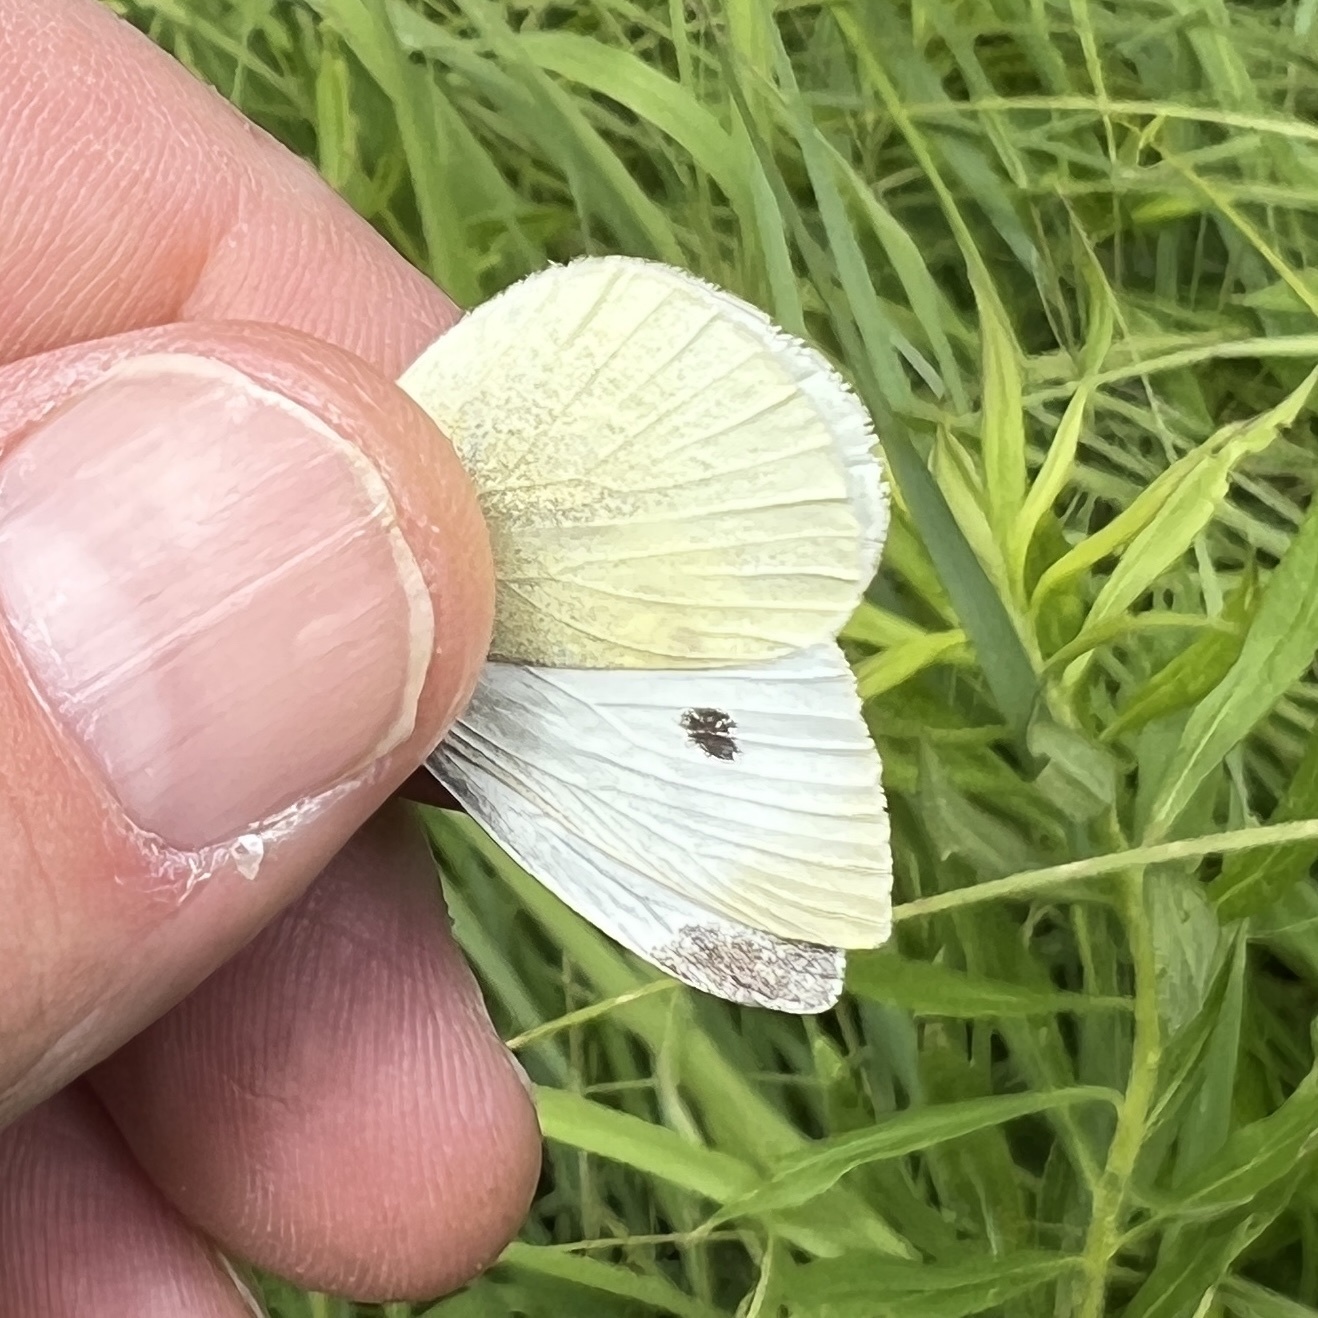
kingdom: Animalia
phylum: Arthropoda
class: Insecta
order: Lepidoptera
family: Pieridae
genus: Pieris
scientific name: Pieris rapae
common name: Small white
